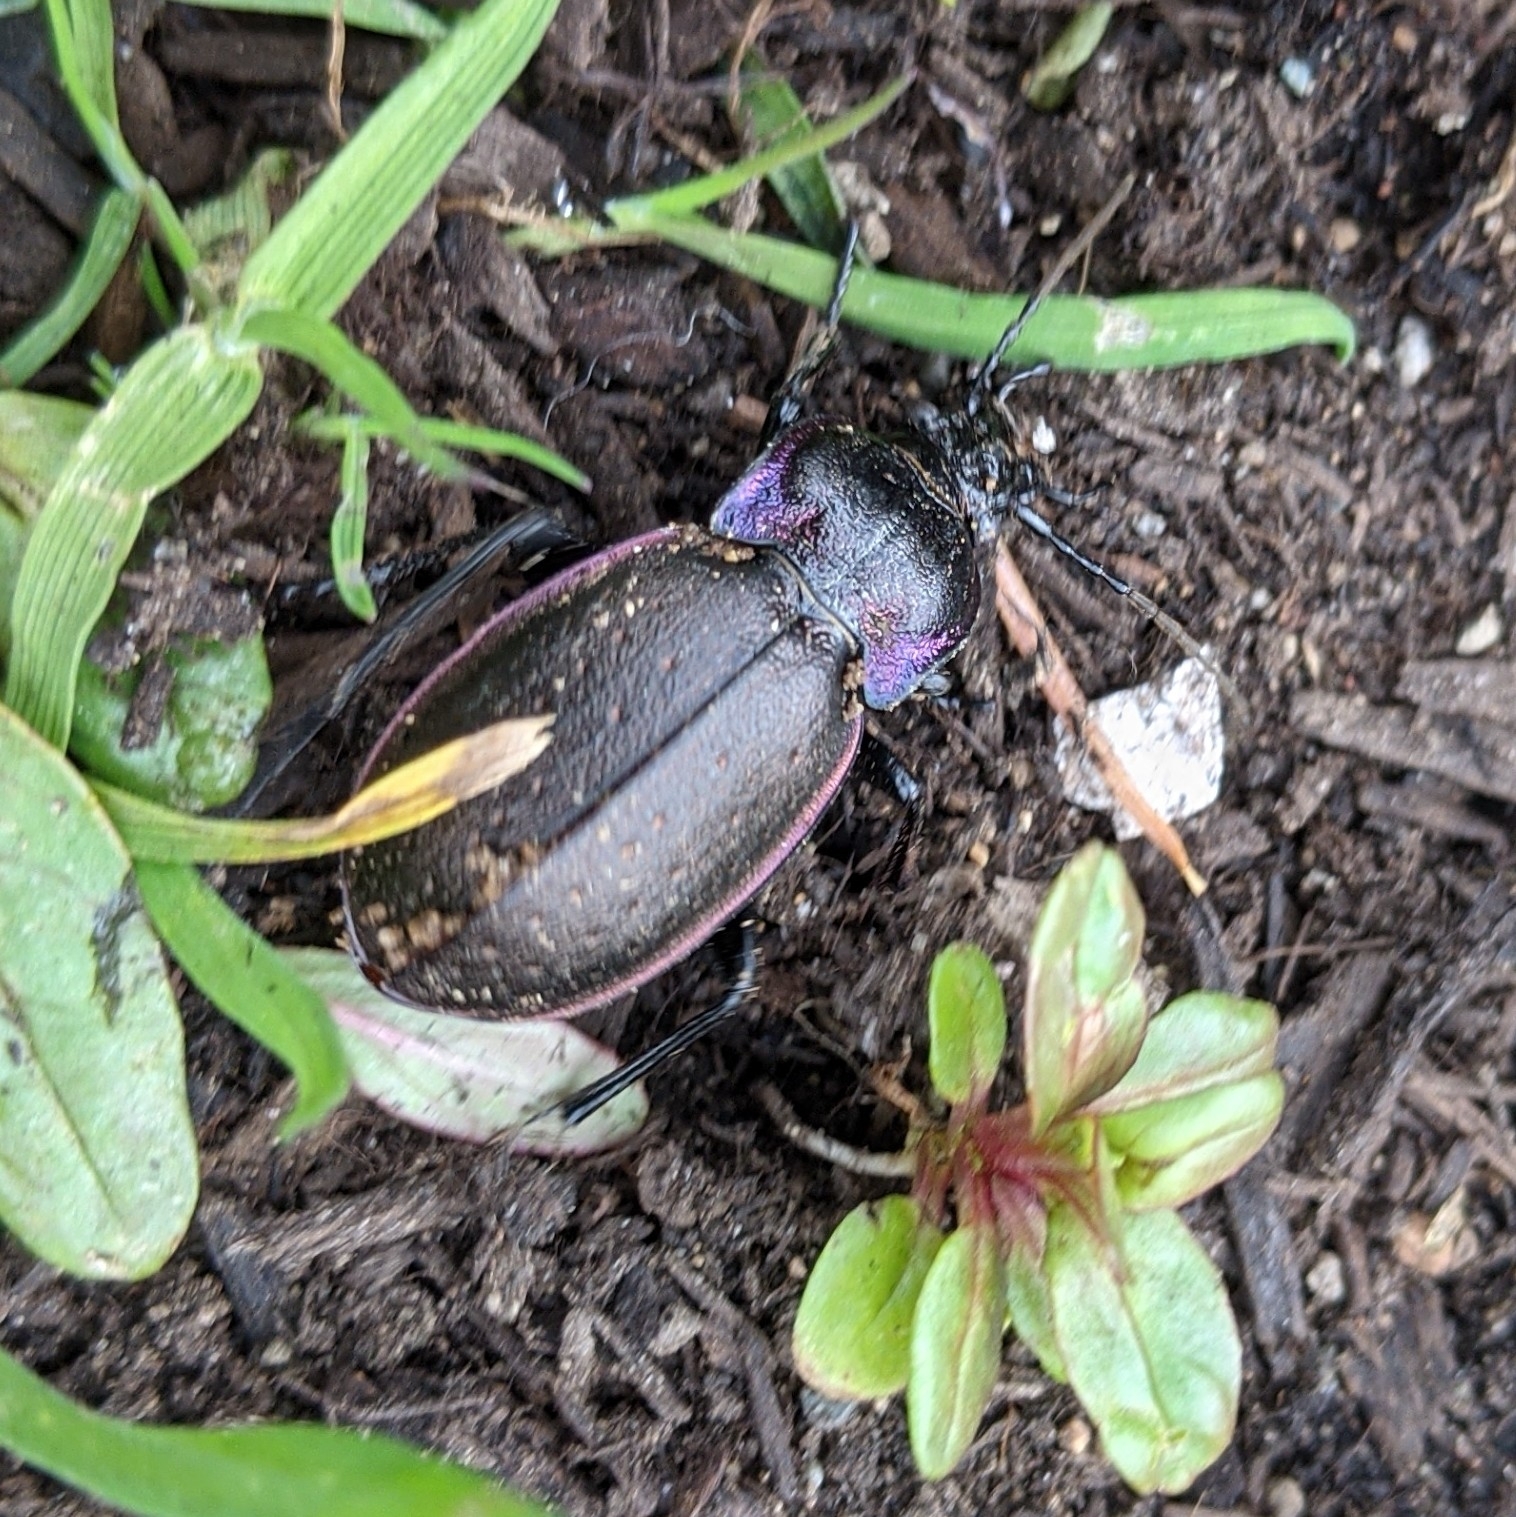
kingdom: Animalia
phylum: Arthropoda
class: Insecta
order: Coleoptera
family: Carabidae
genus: Carabus
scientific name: Carabus nemoralis
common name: European ground beetle
